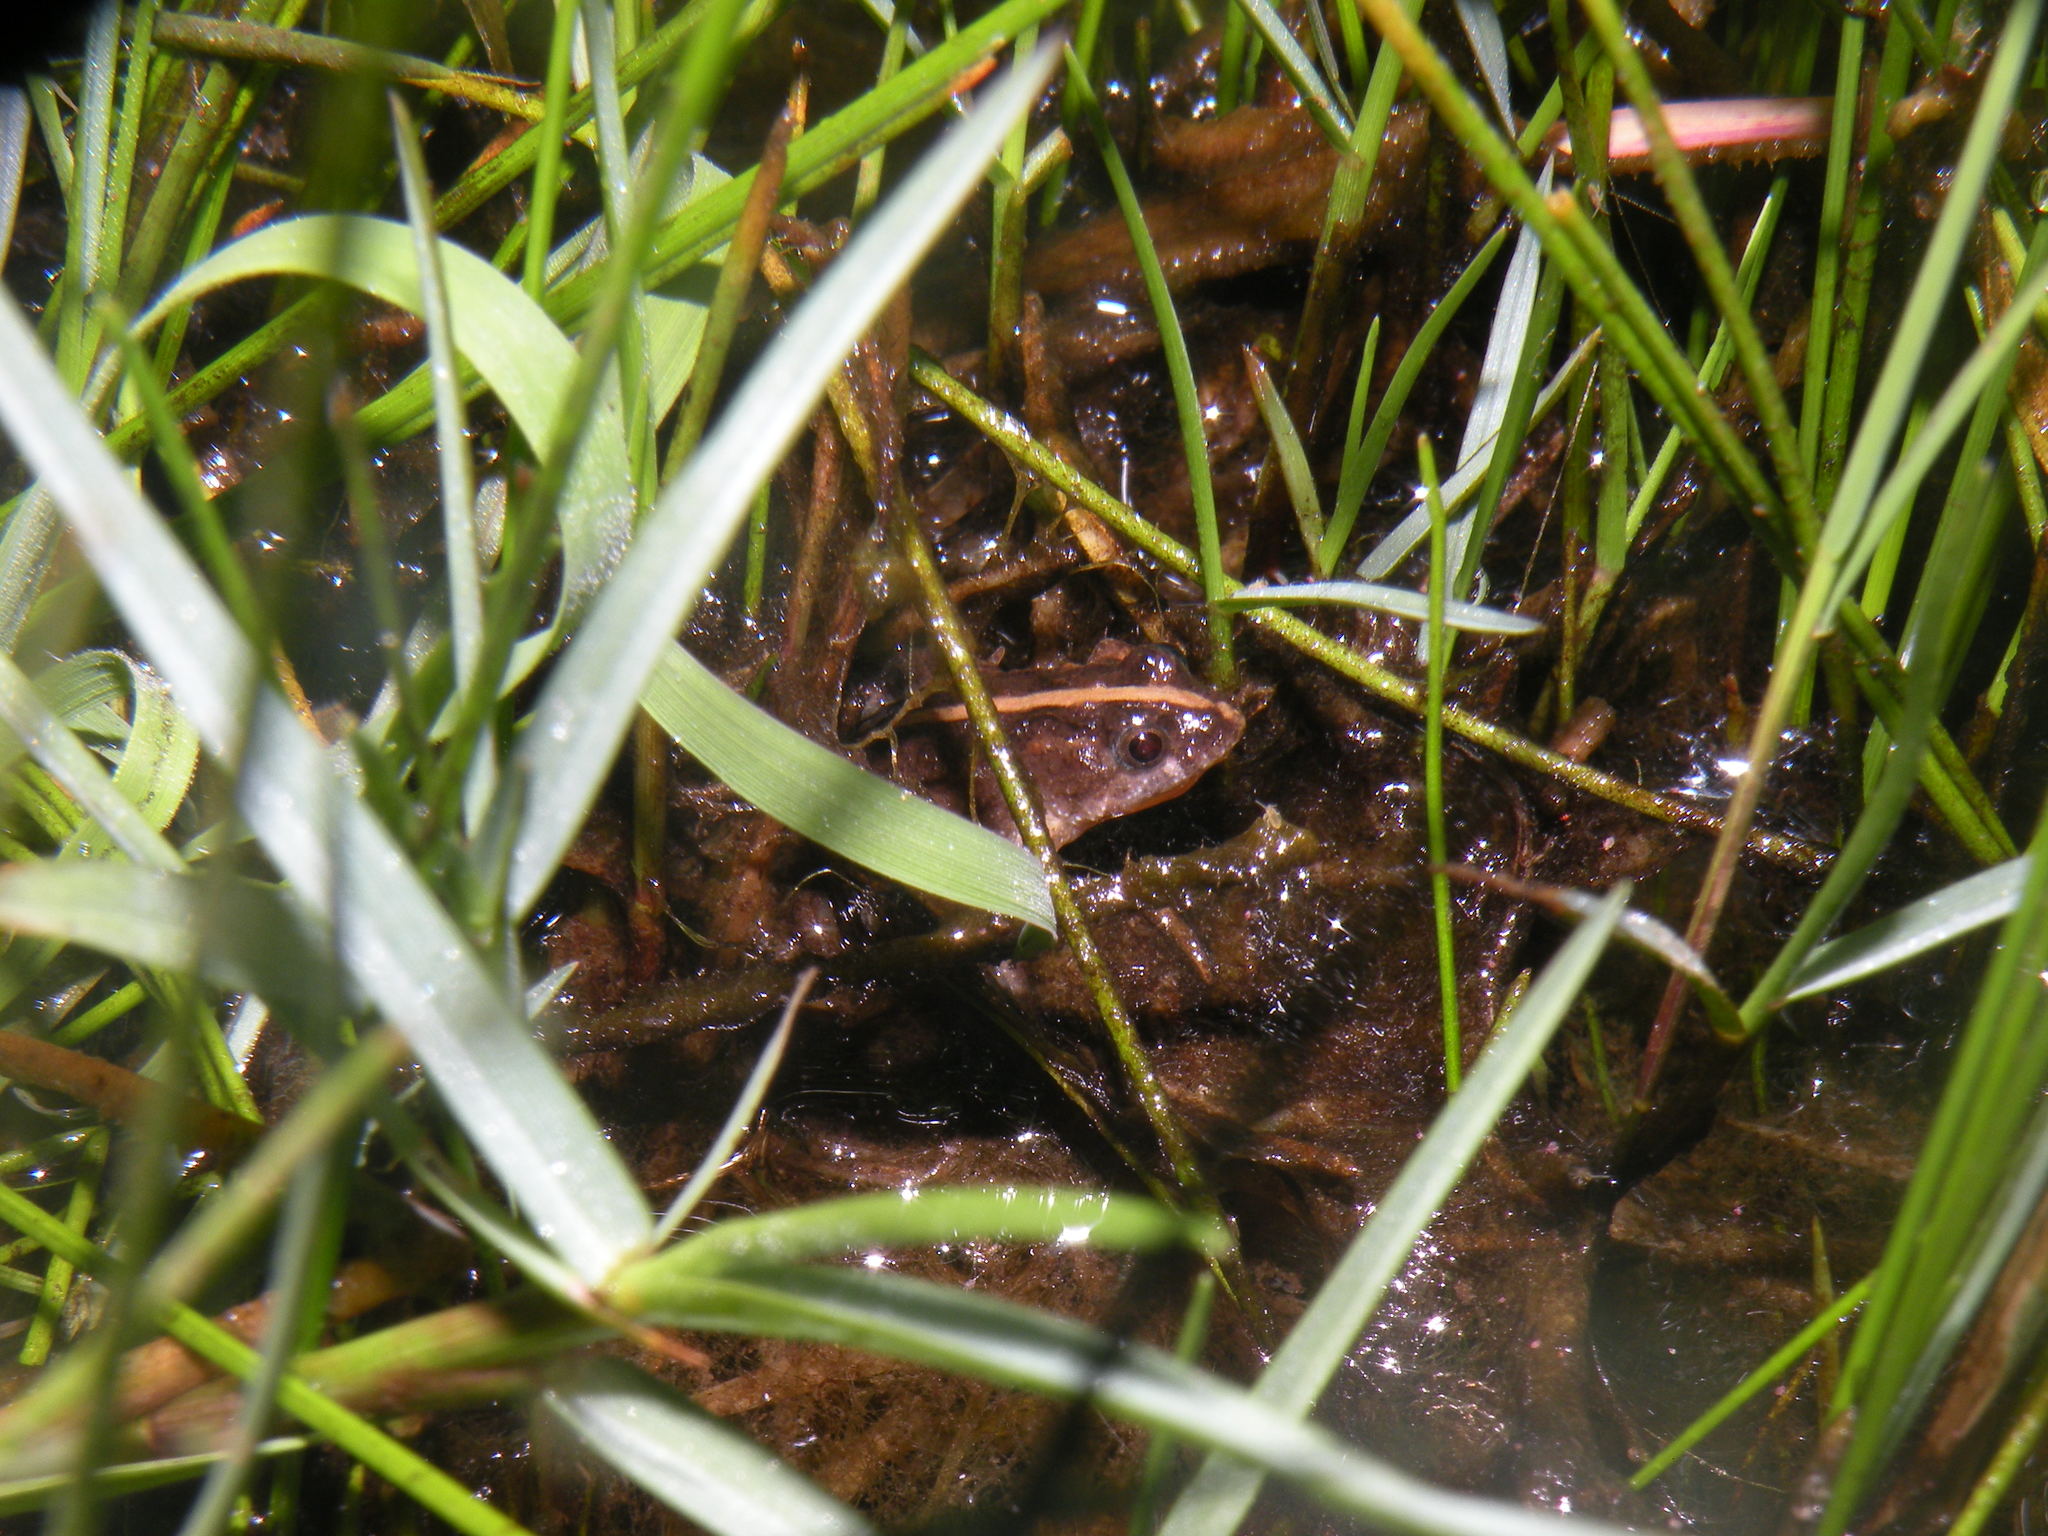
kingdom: Animalia
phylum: Chordata
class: Amphibia
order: Anura
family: Leptodactylidae
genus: Pseudopaludicola
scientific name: Pseudopaludicola falcipes
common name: Hensel’s swamp frog
